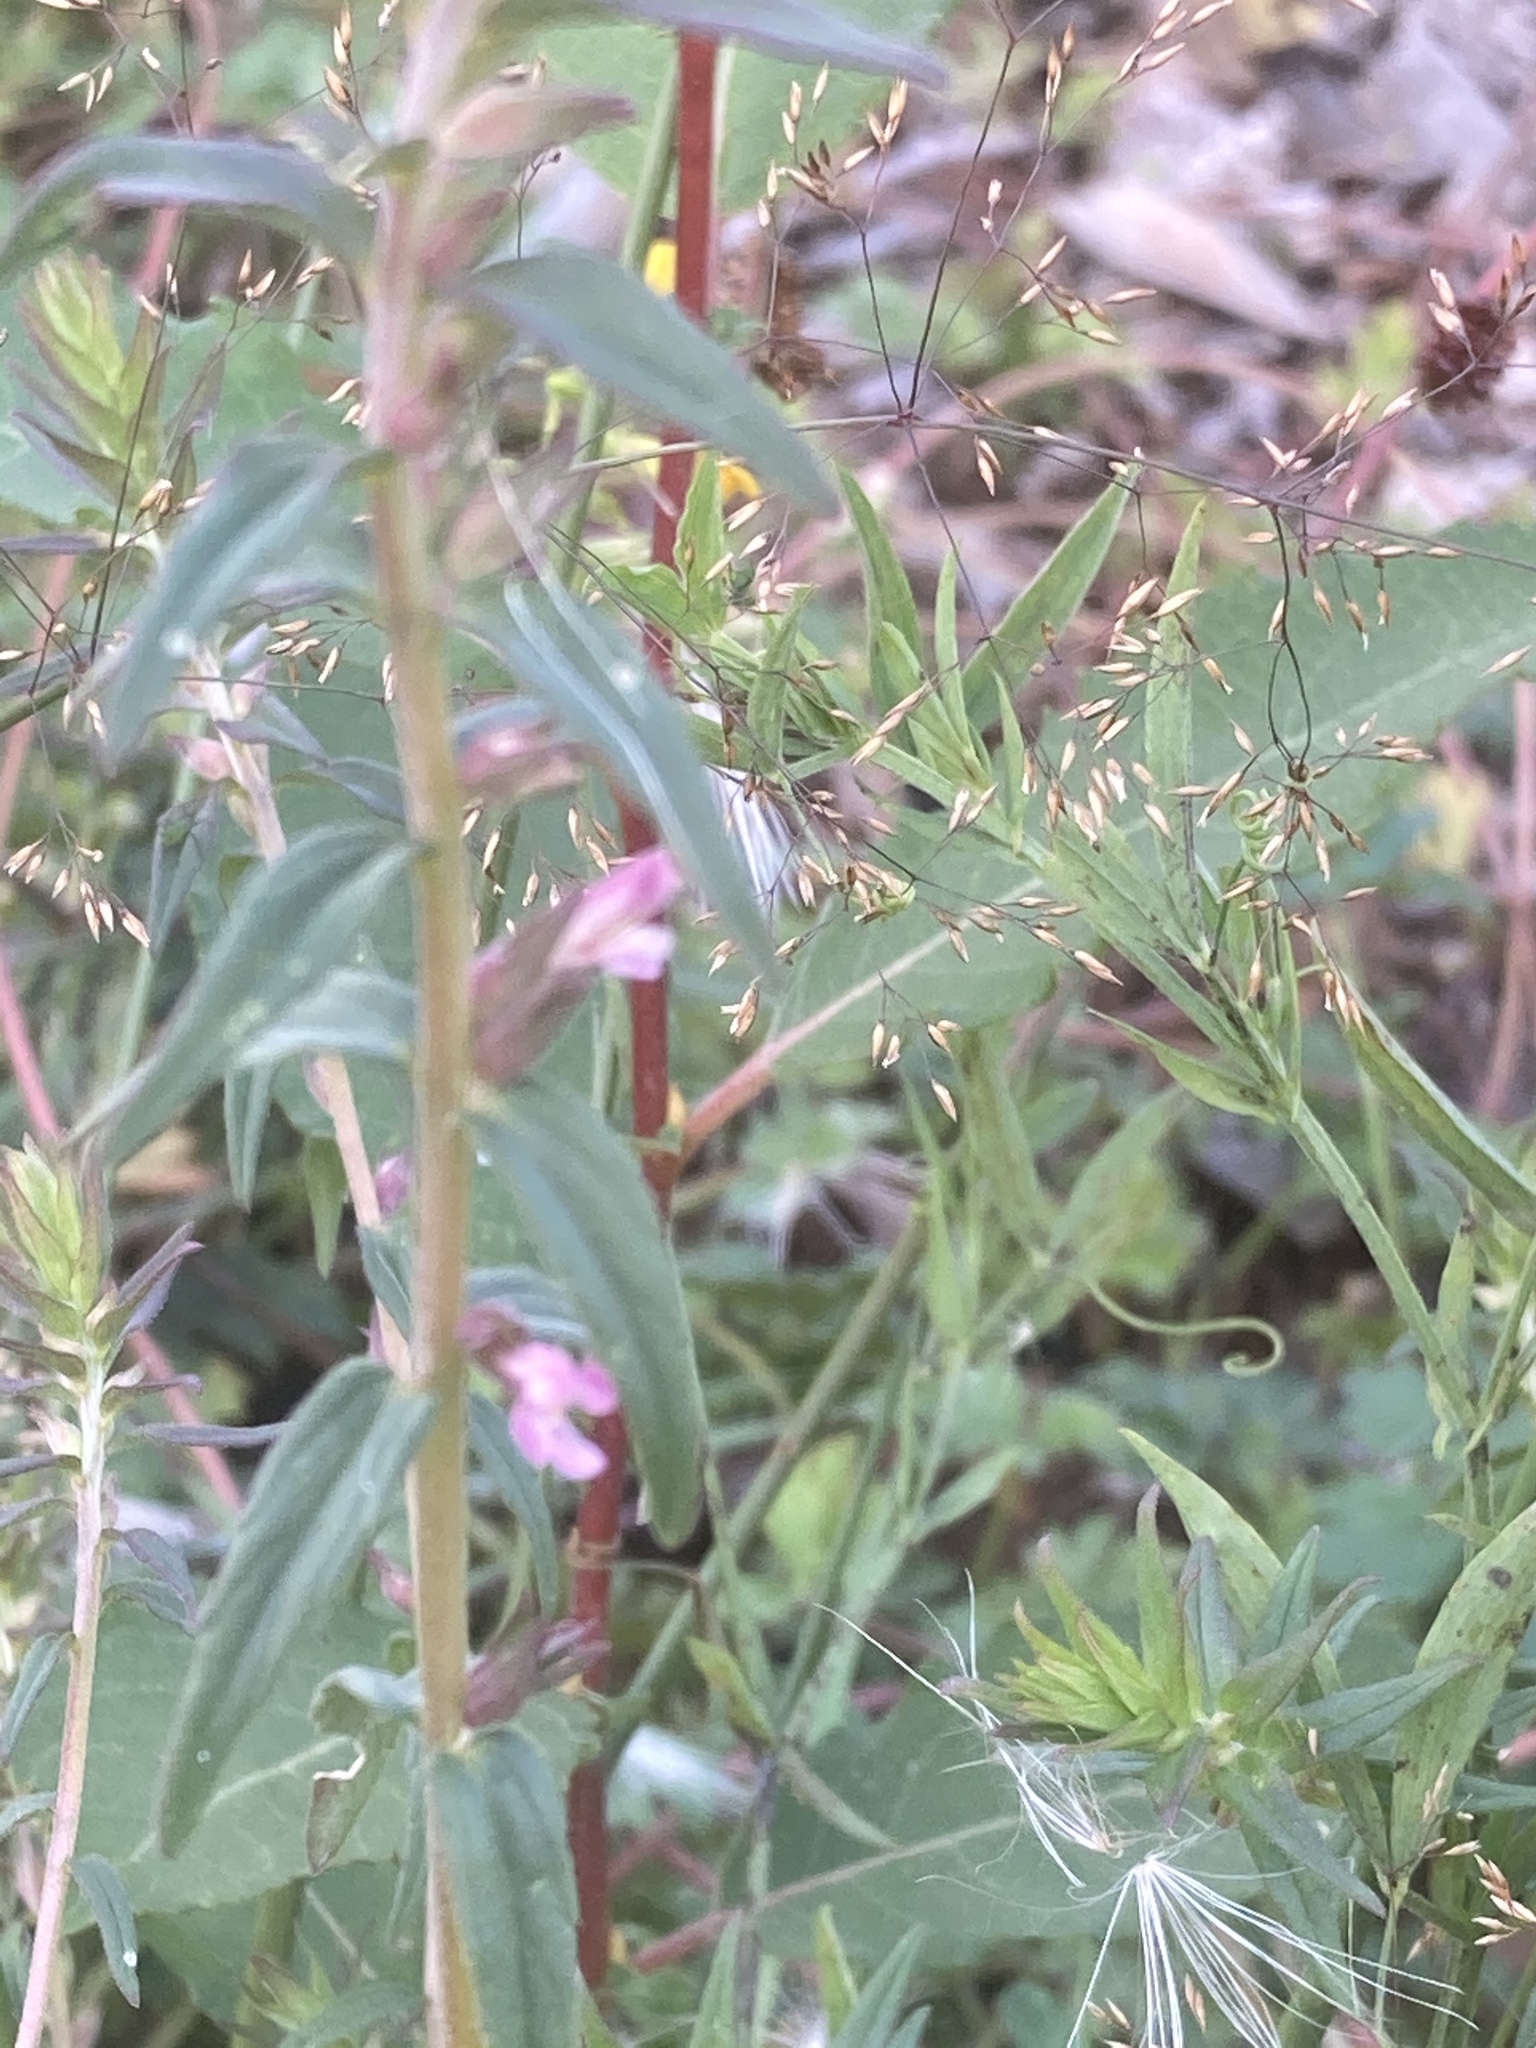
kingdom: Plantae
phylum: Tracheophyta
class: Magnoliopsida
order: Lamiales
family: Orobanchaceae
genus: Odontites
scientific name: Odontites vernus
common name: Red bartsia
